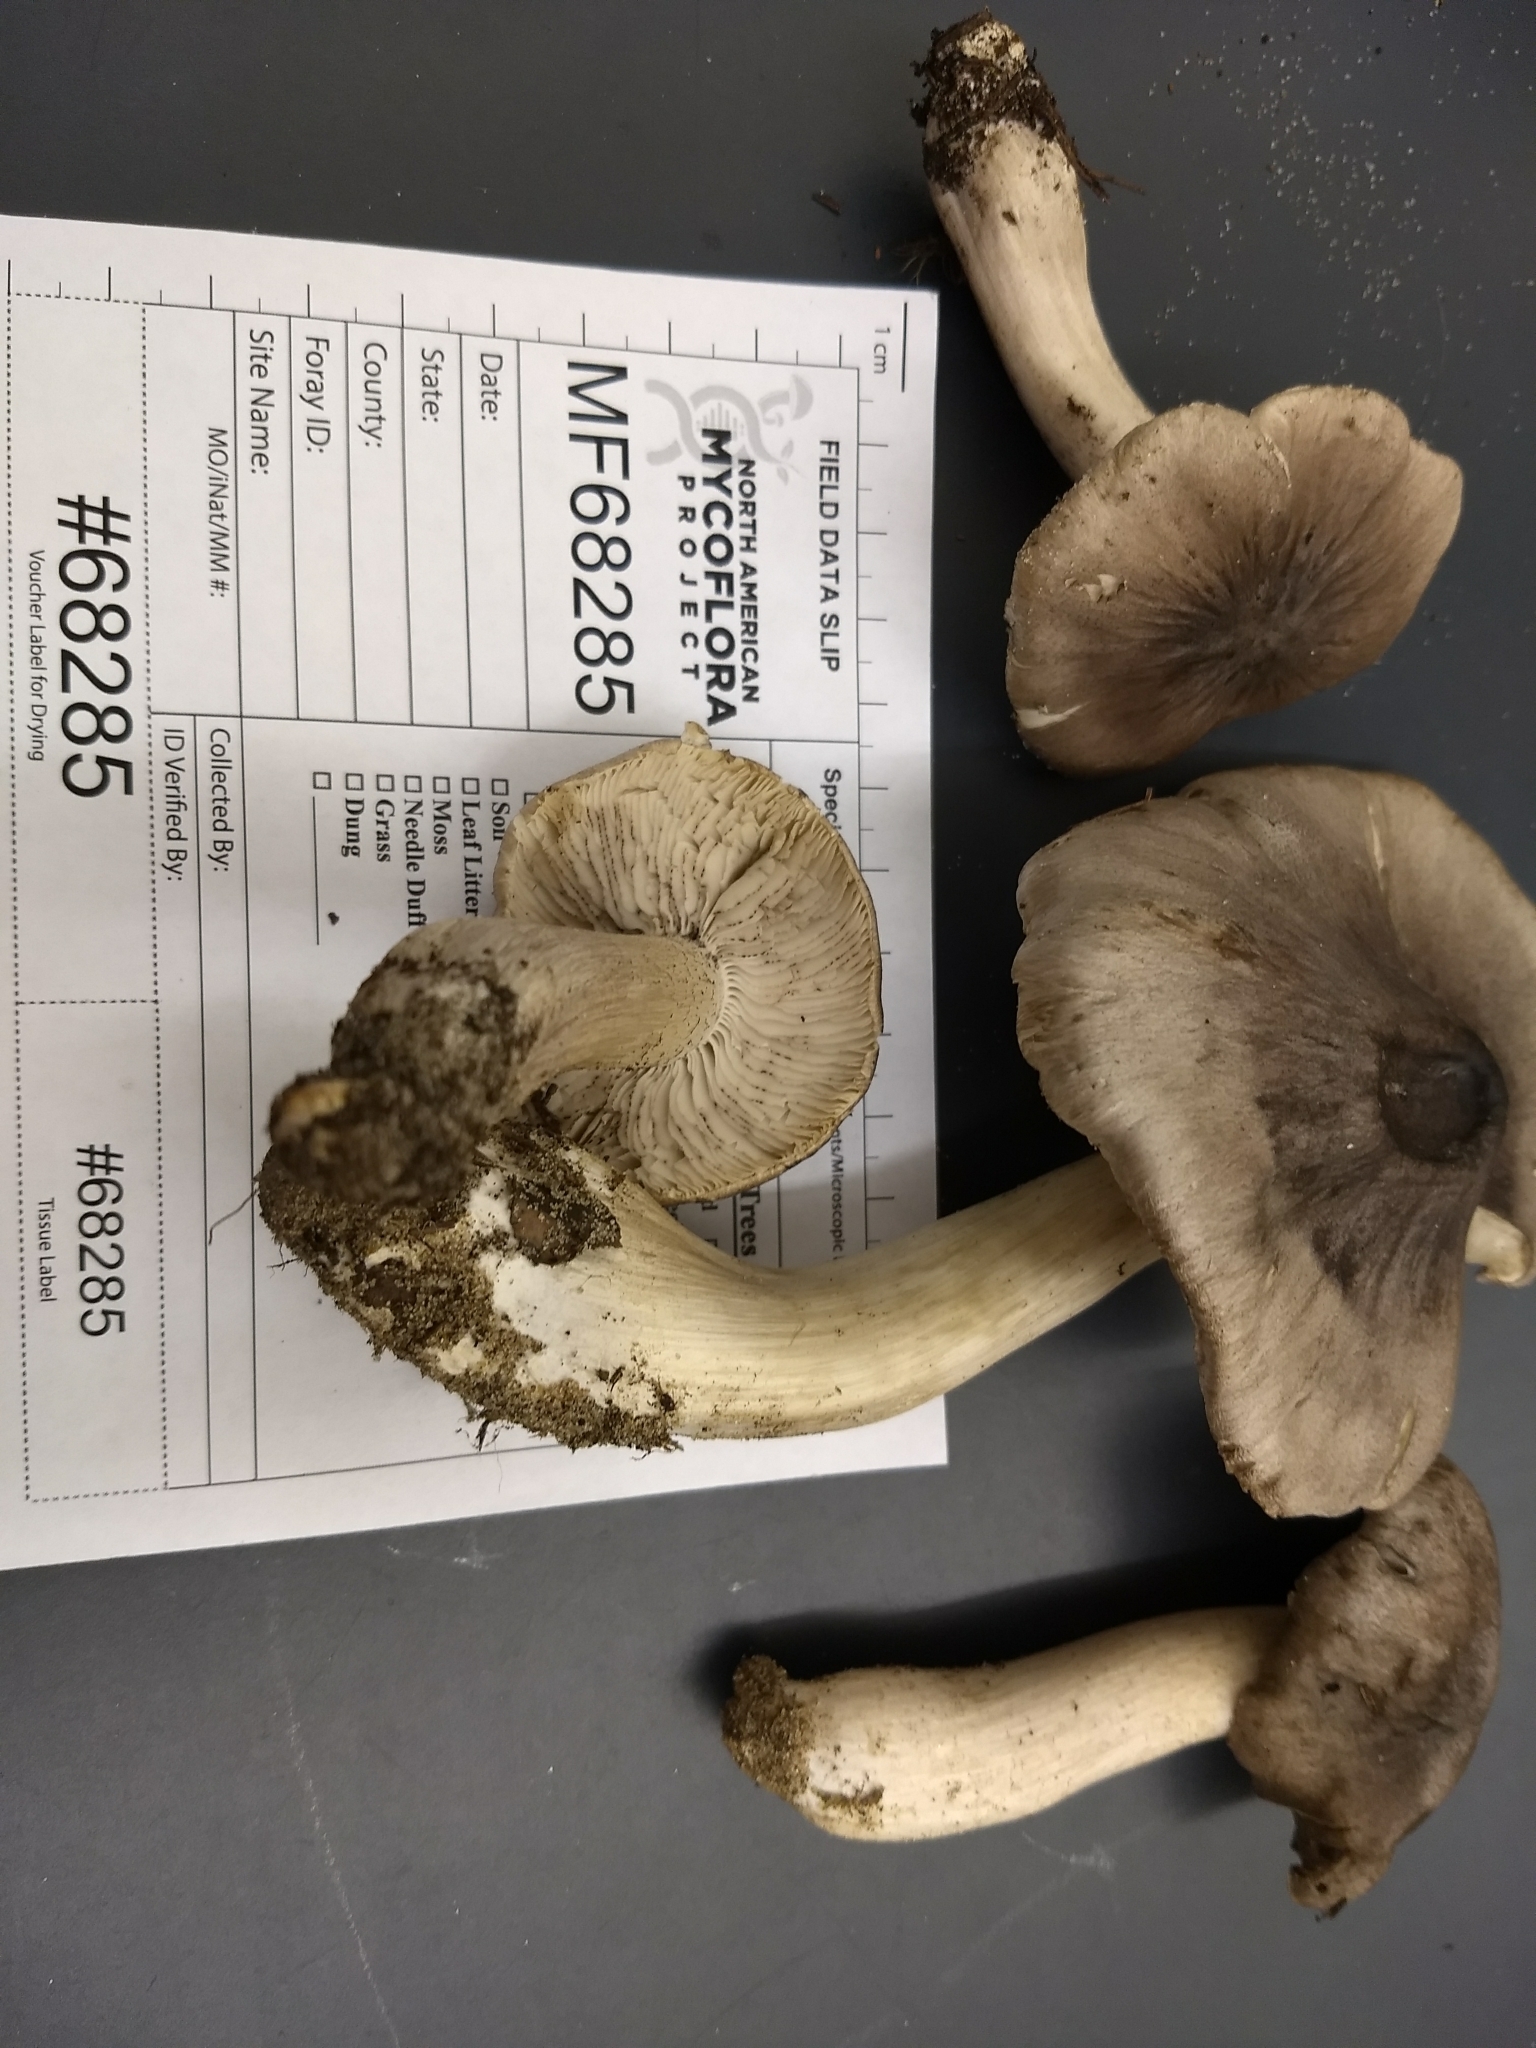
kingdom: Fungi
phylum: Basidiomycota
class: Agaricomycetes
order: Agaricales
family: Tricholomataceae
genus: Tricholoma
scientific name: Tricholoma nigrum
